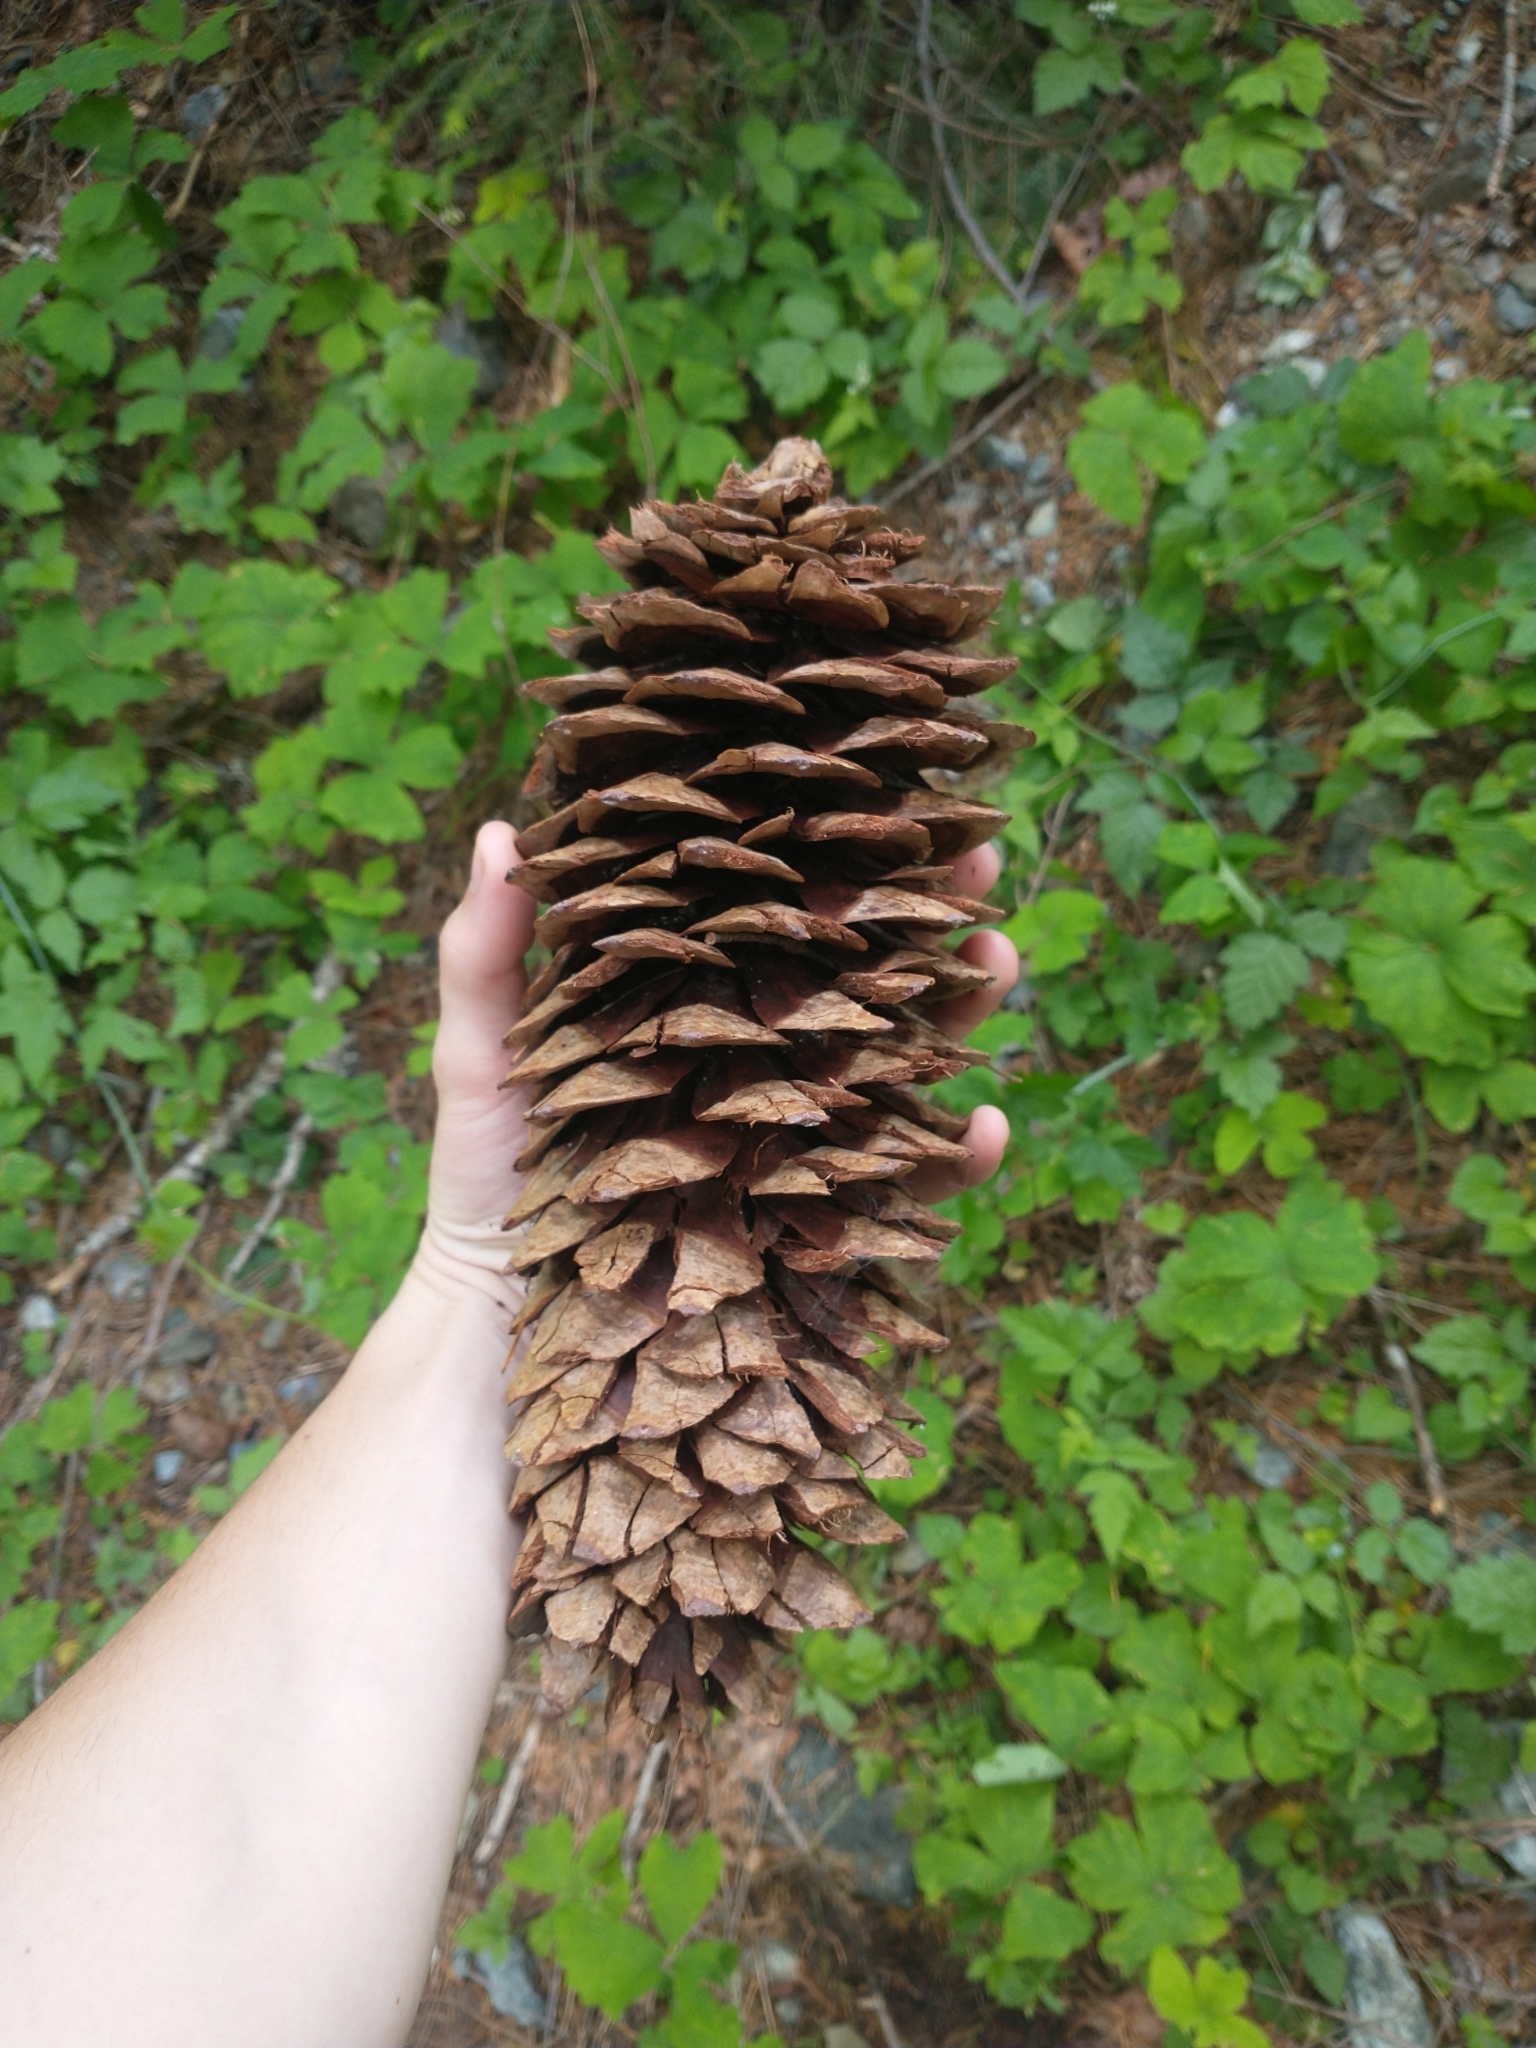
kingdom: Plantae
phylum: Tracheophyta
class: Pinopsida
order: Pinales
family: Pinaceae
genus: Pinus
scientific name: Pinus lambertiana
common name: Sugar pine
